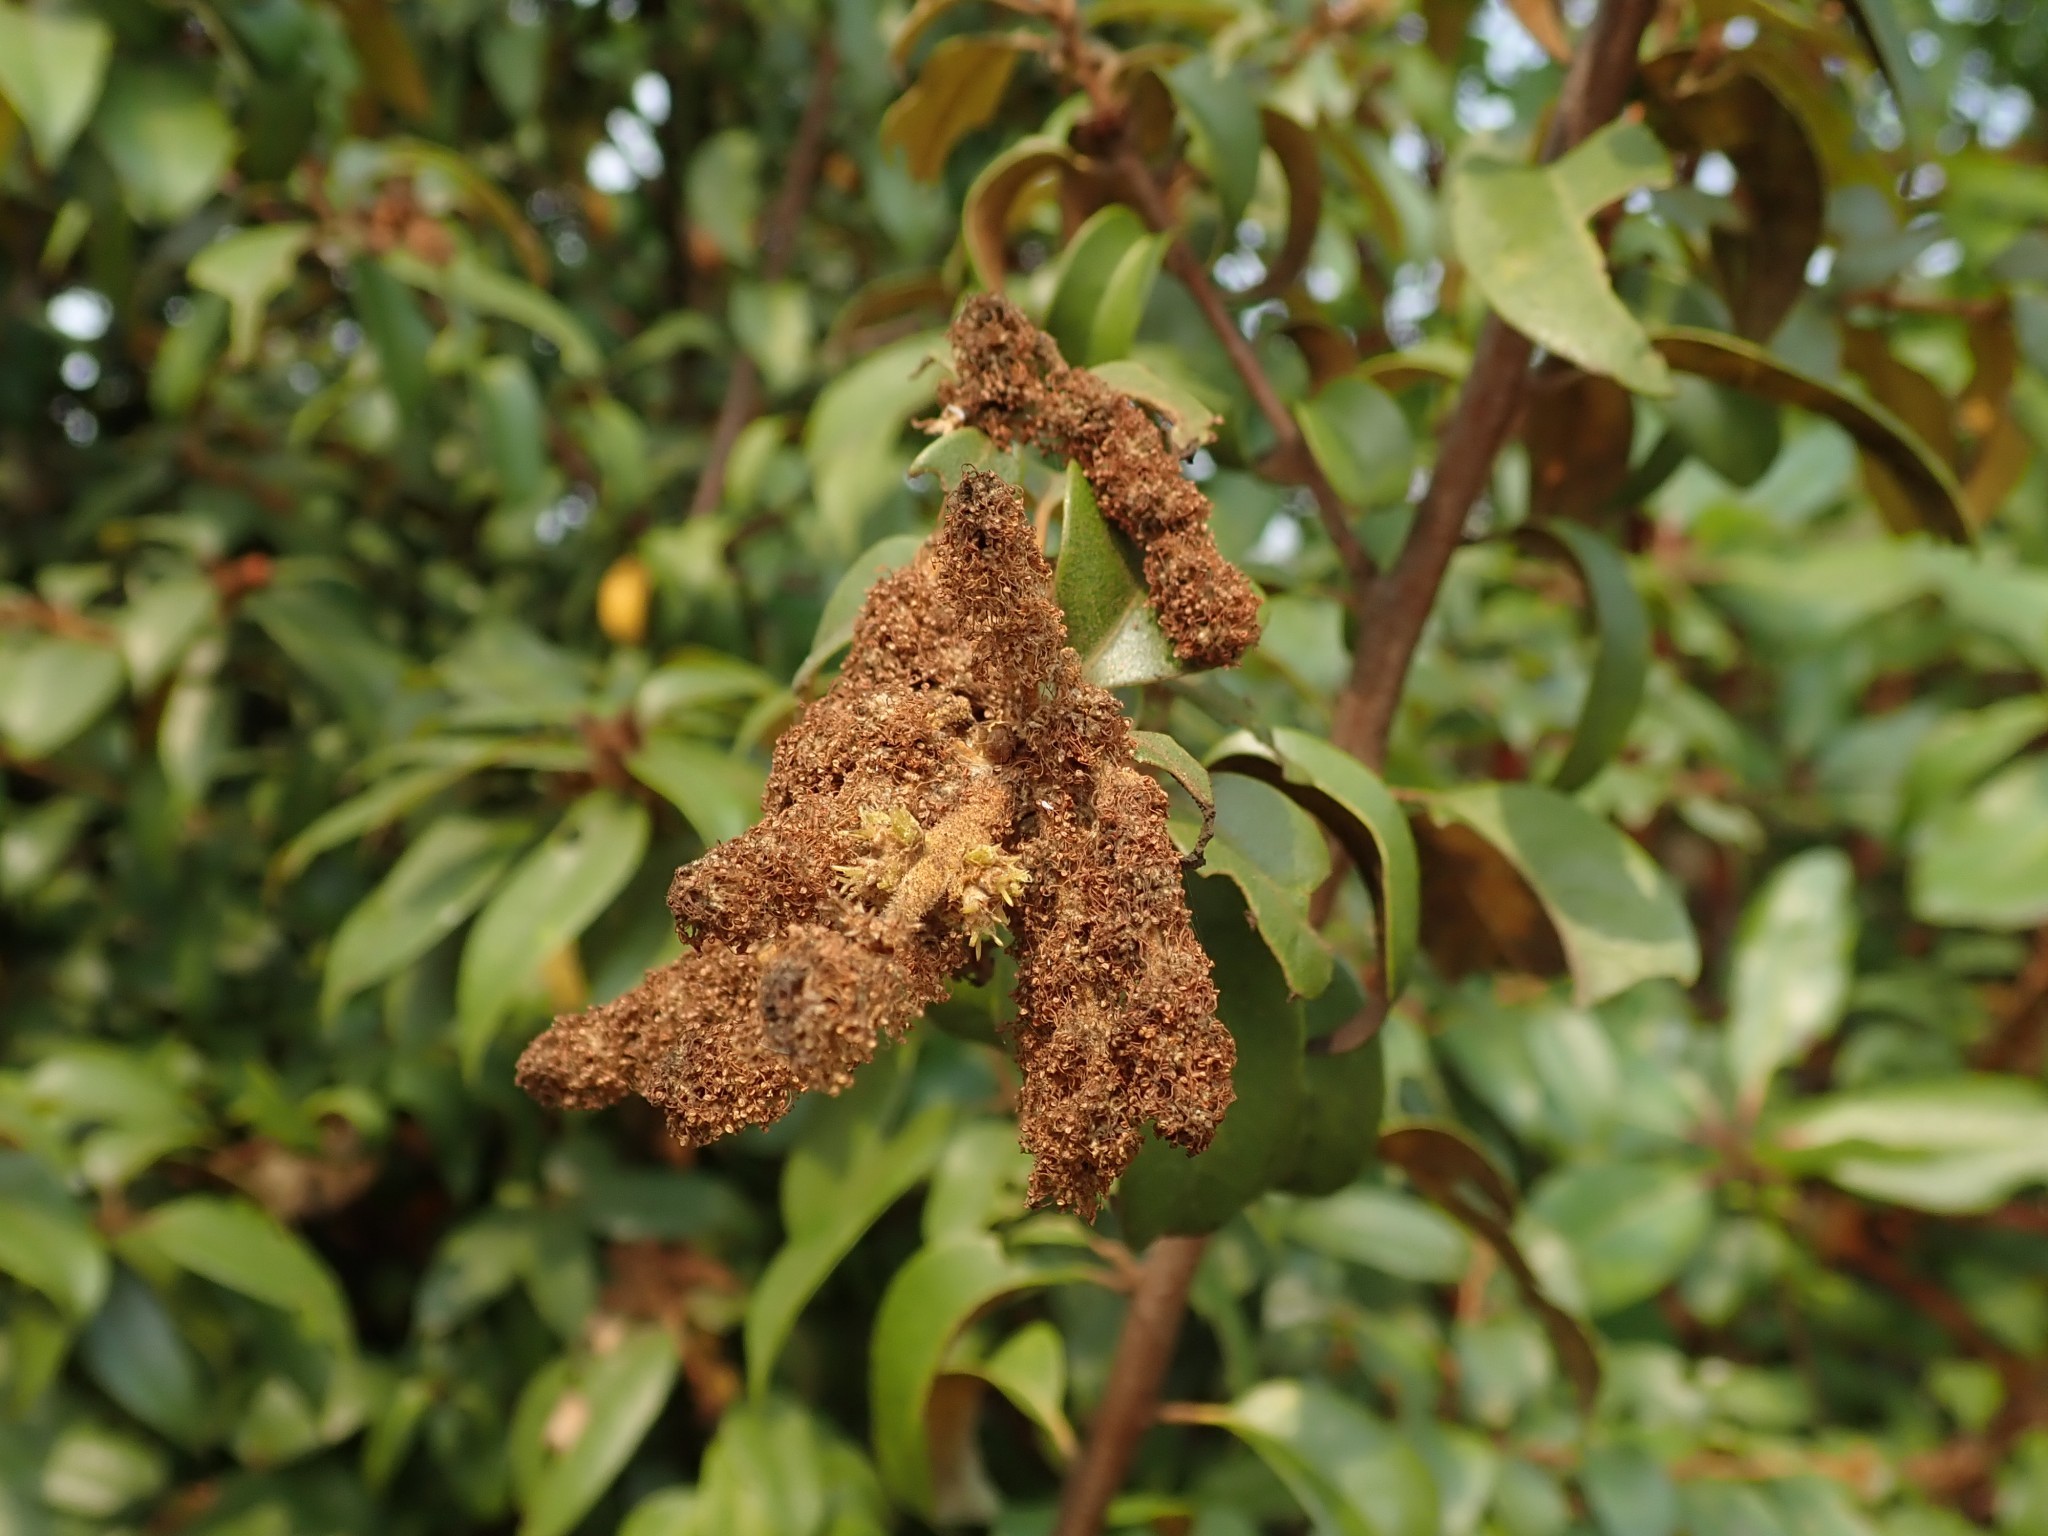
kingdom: Plantae
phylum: Tracheophyta
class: Magnoliopsida
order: Fagales
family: Fagaceae
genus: Chrysolepis
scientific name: Chrysolepis chrysophylla
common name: Giant chinquapin
